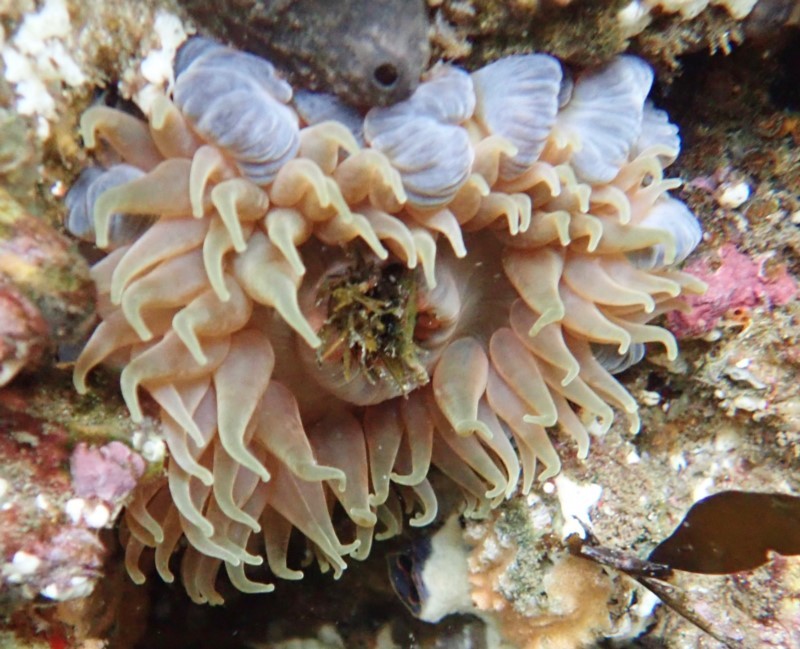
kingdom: Animalia
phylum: Cnidaria
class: Anthozoa
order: Actiniaria
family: Actiniidae
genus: Phlyctenanthus
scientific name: Phlyctenanthus australis
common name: Southern anemone
